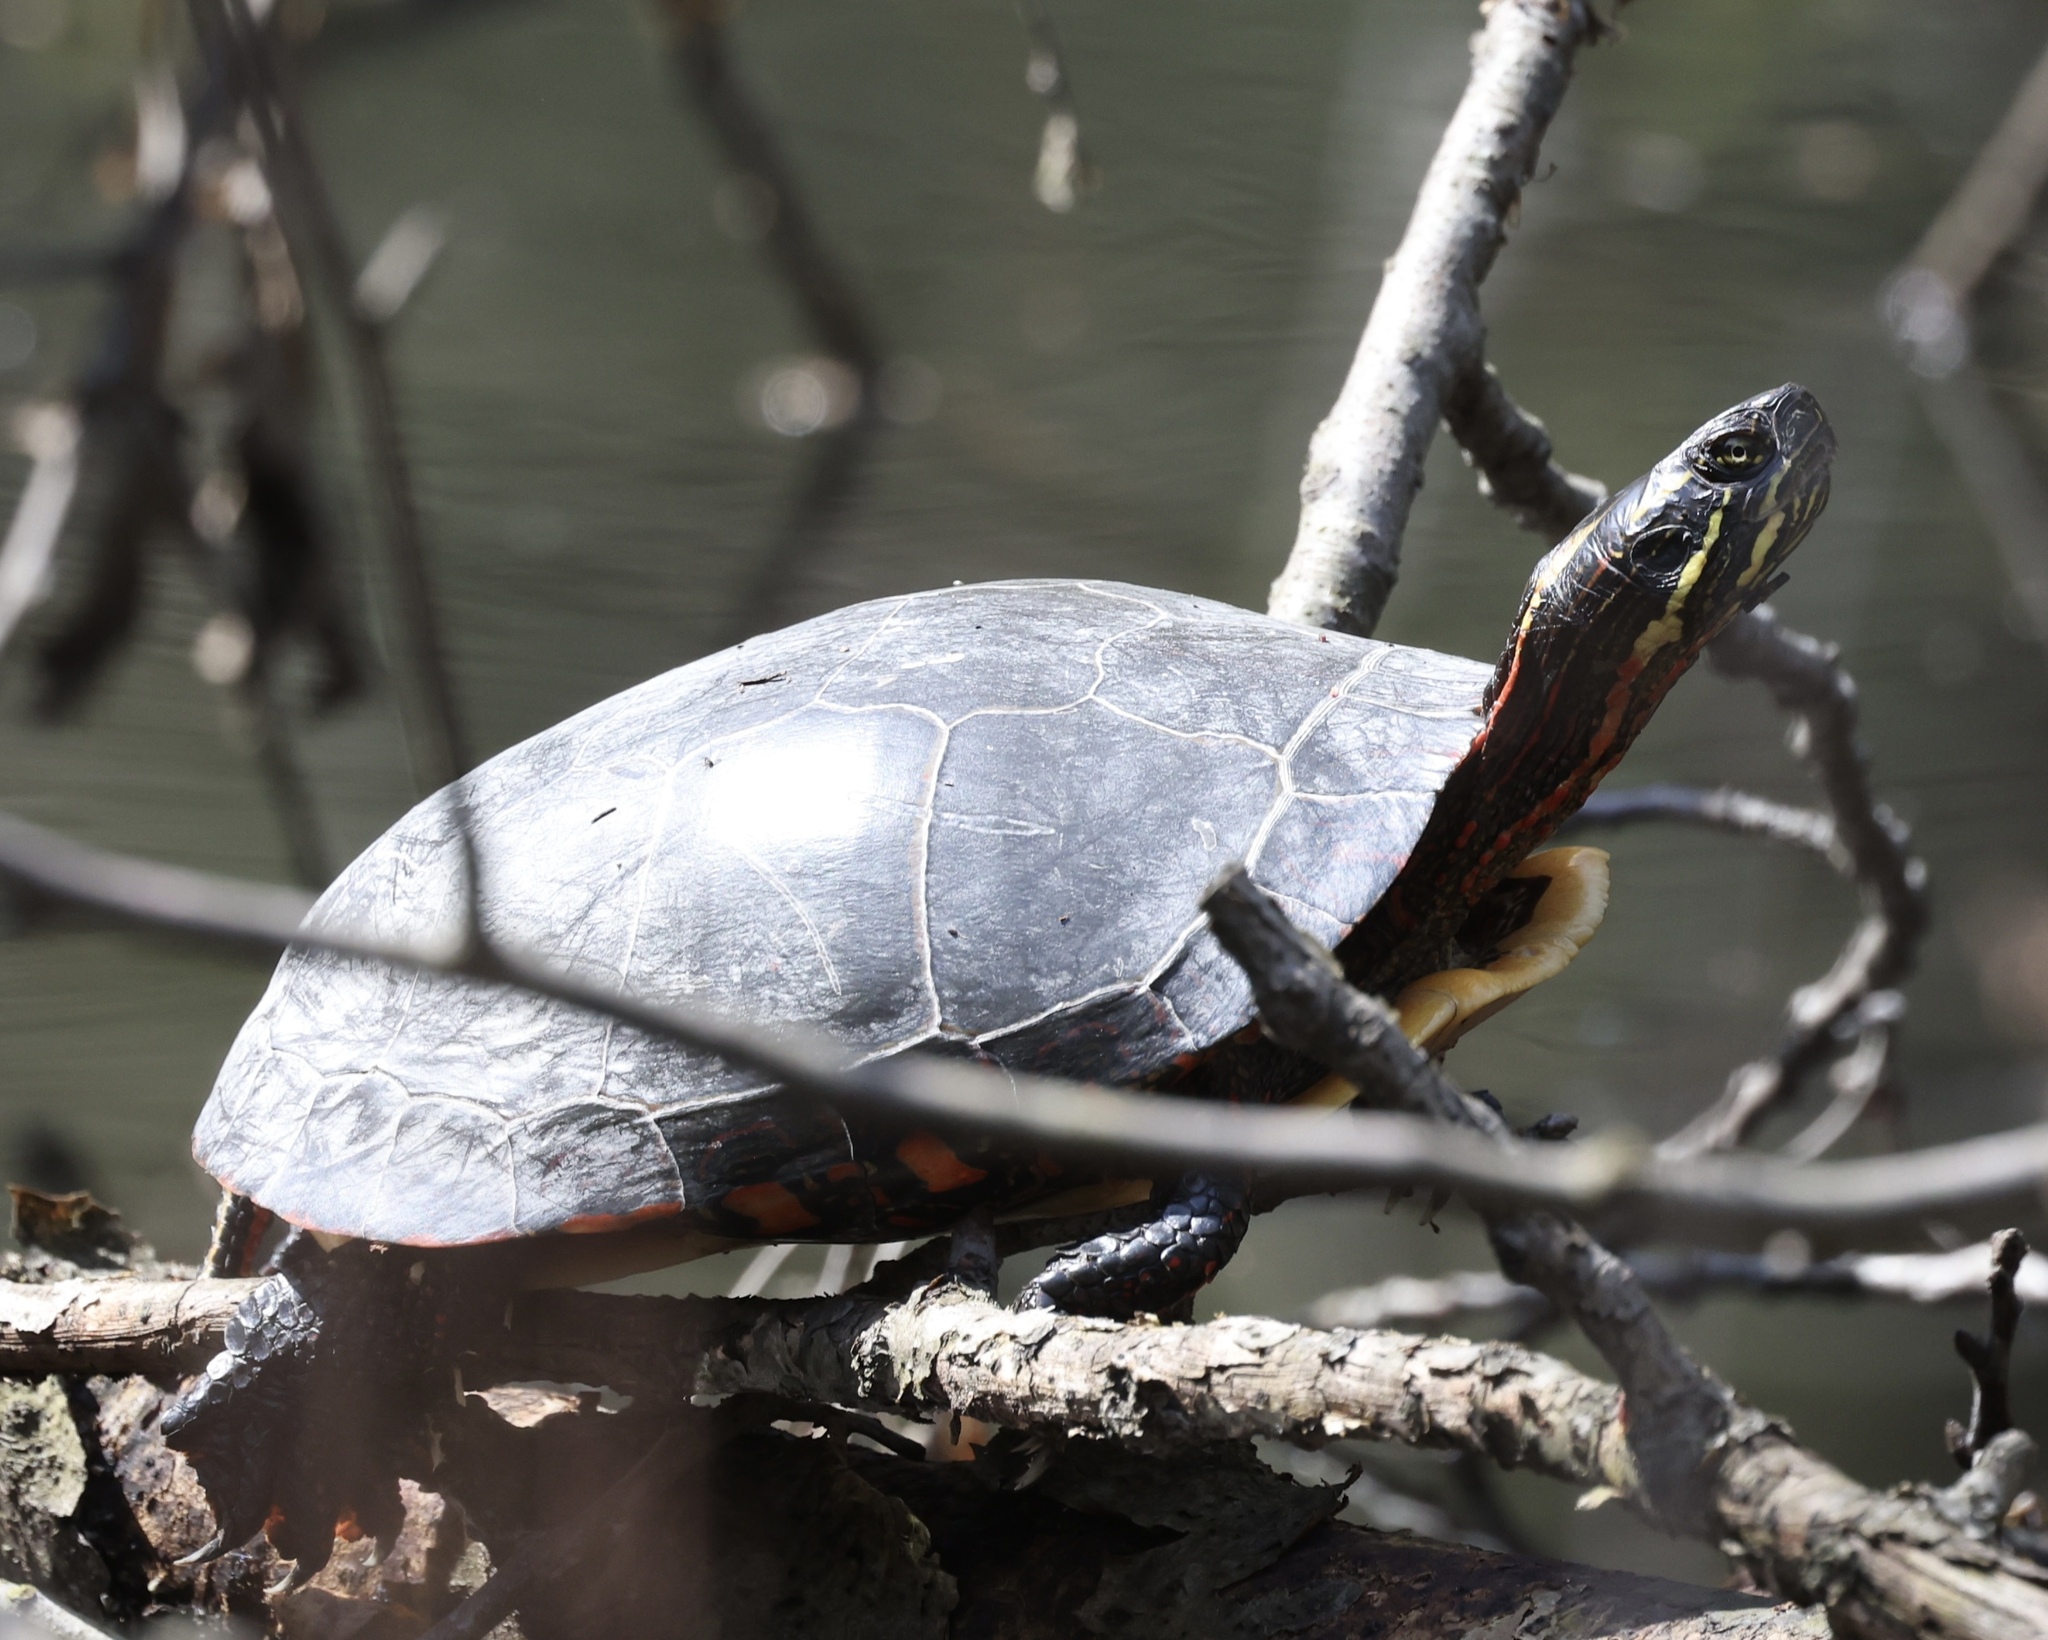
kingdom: Animalia
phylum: Chordata
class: Testudines
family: Emydidae
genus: Chrysemys
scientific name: Chrysemys picta
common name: Painted turtle
